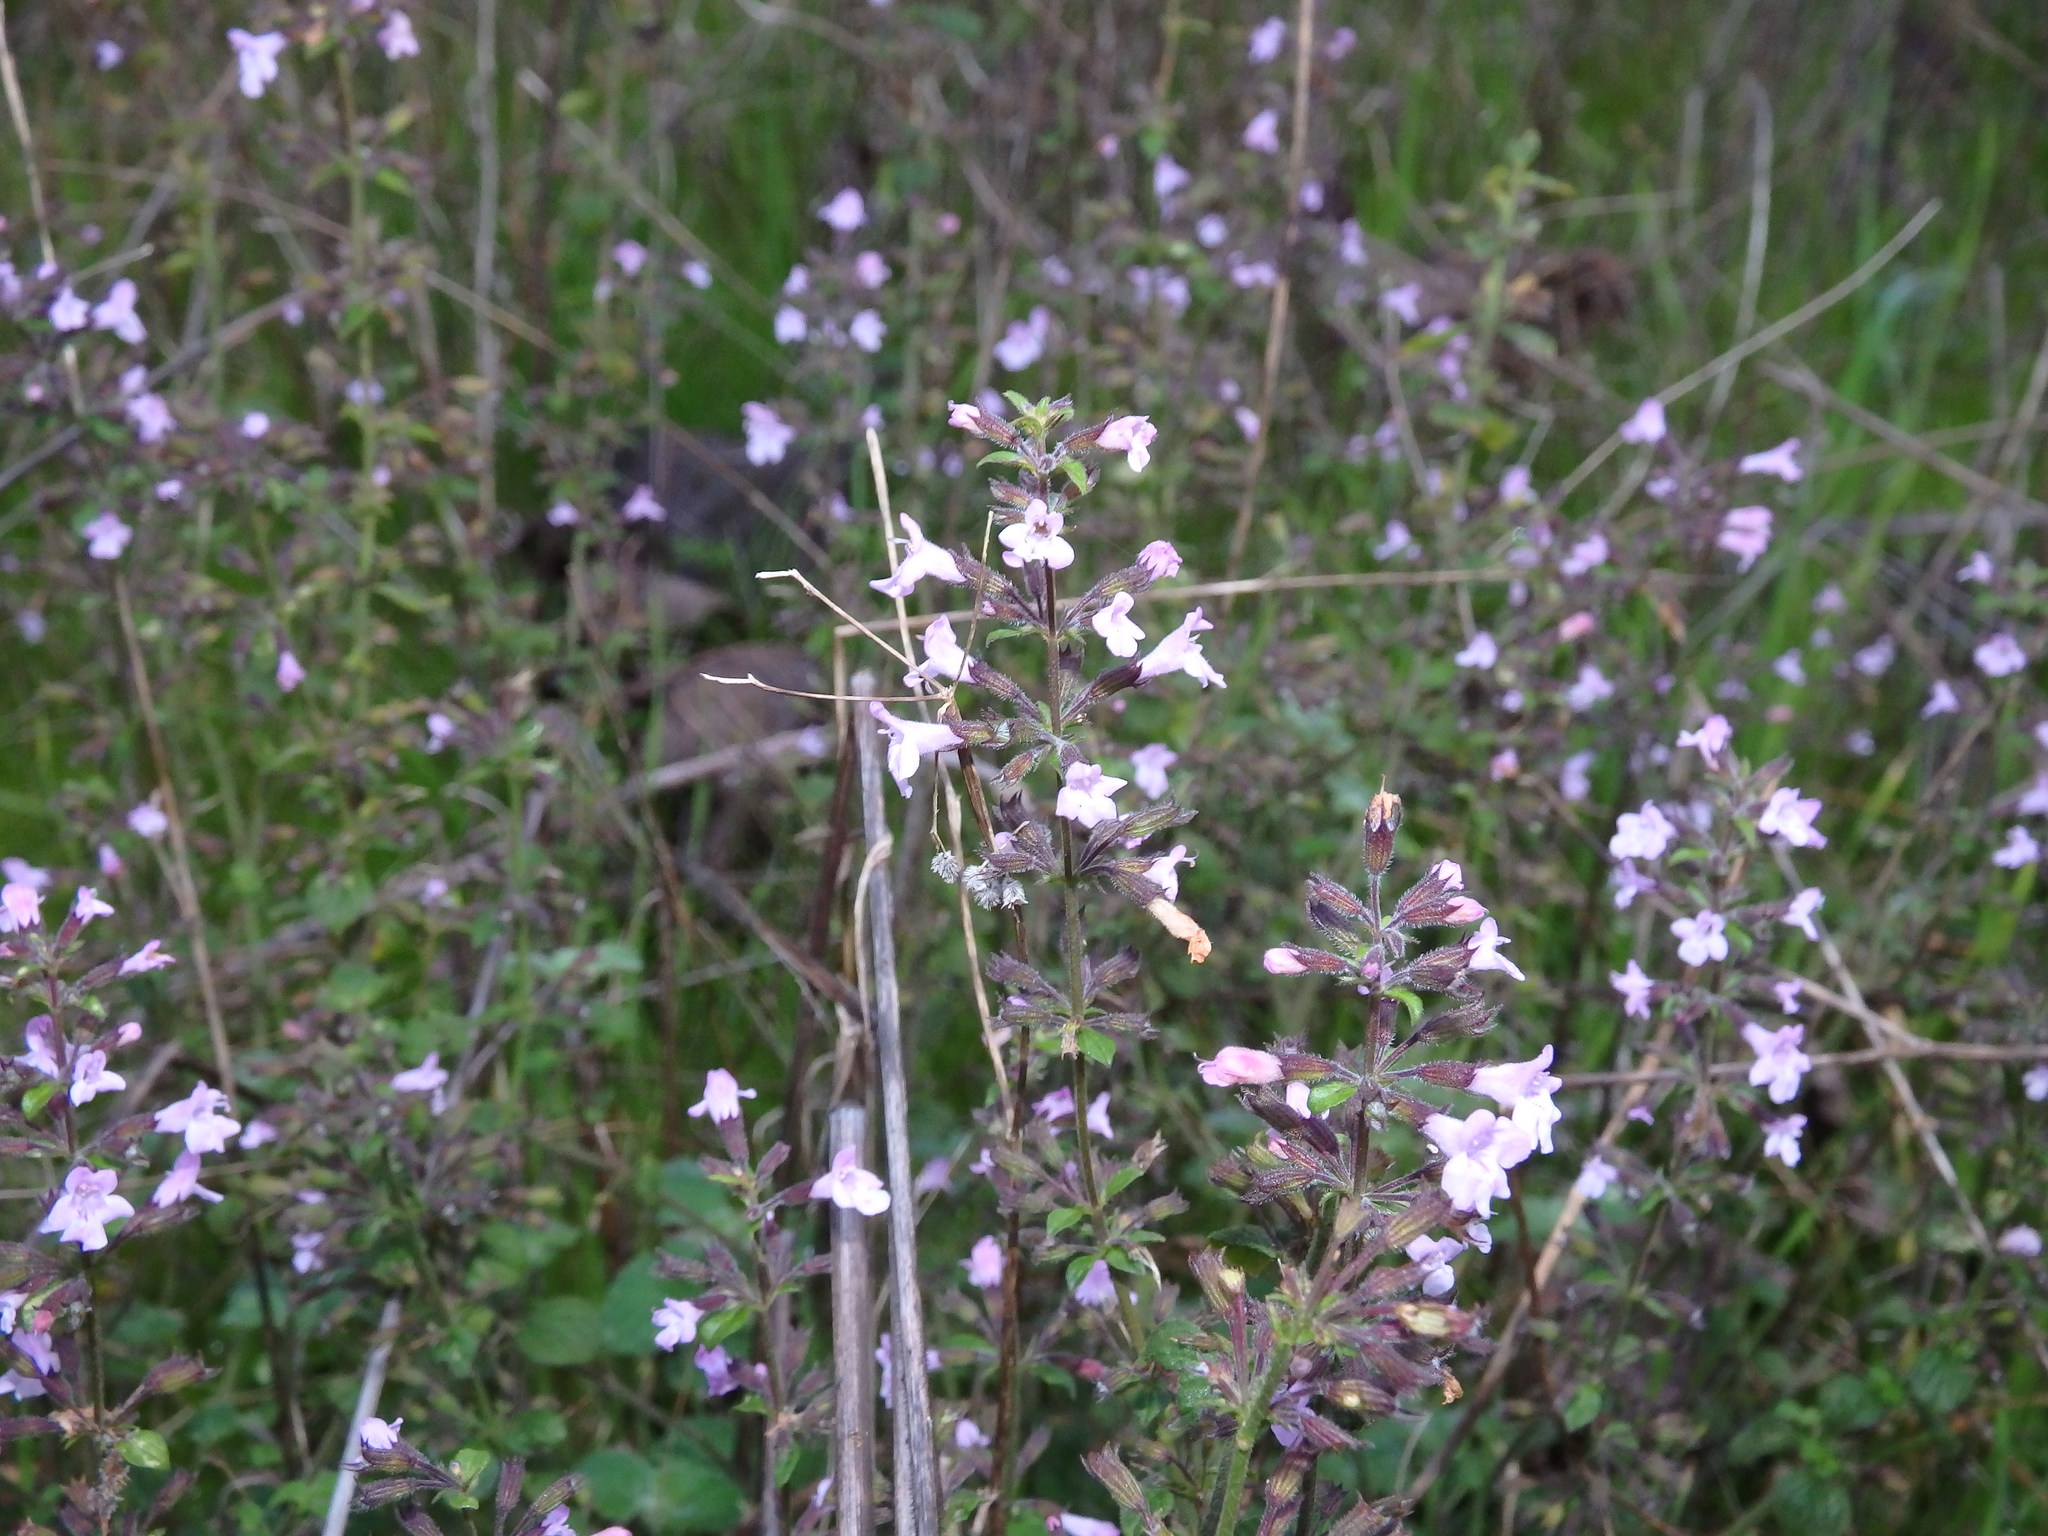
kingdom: Plantae
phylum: Tracheophyta
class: Magnoliopsida
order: Lamiales
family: Lamiaceae
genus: Clinopodium
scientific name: Clinopodium nepeta
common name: Lesser calamint
